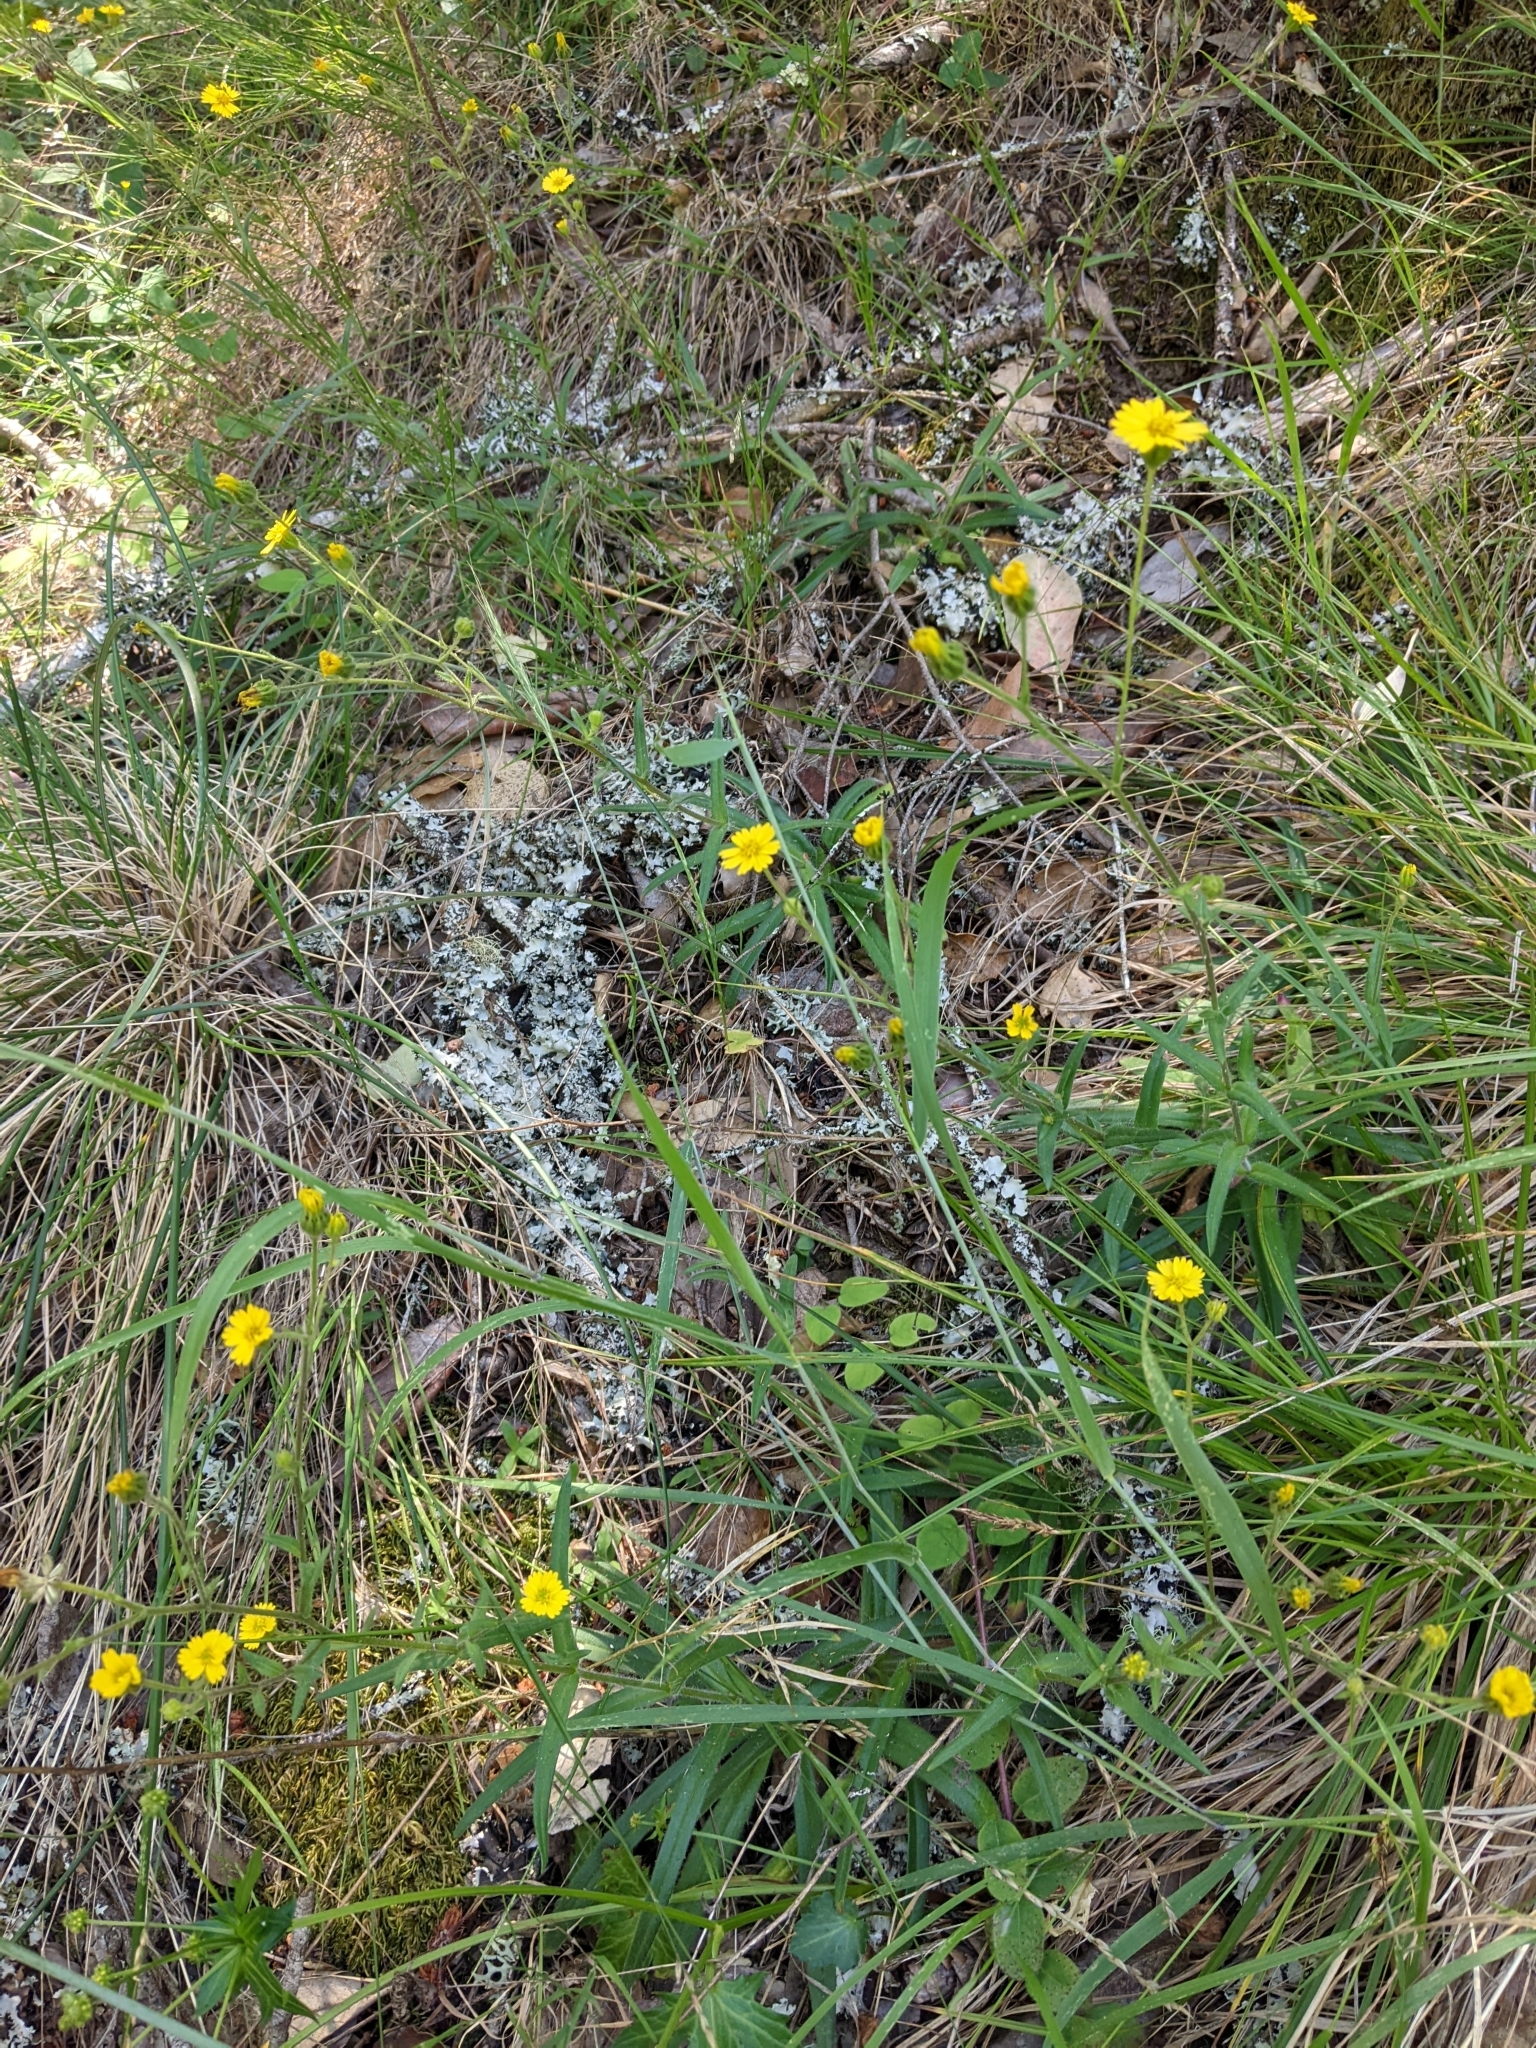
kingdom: Plantae
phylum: Tracheophyta
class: Magnoliopsida
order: Asterales
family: Asteraceae
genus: Anisocarpus
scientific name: Anisocarpus madioides
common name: Woodland madia
